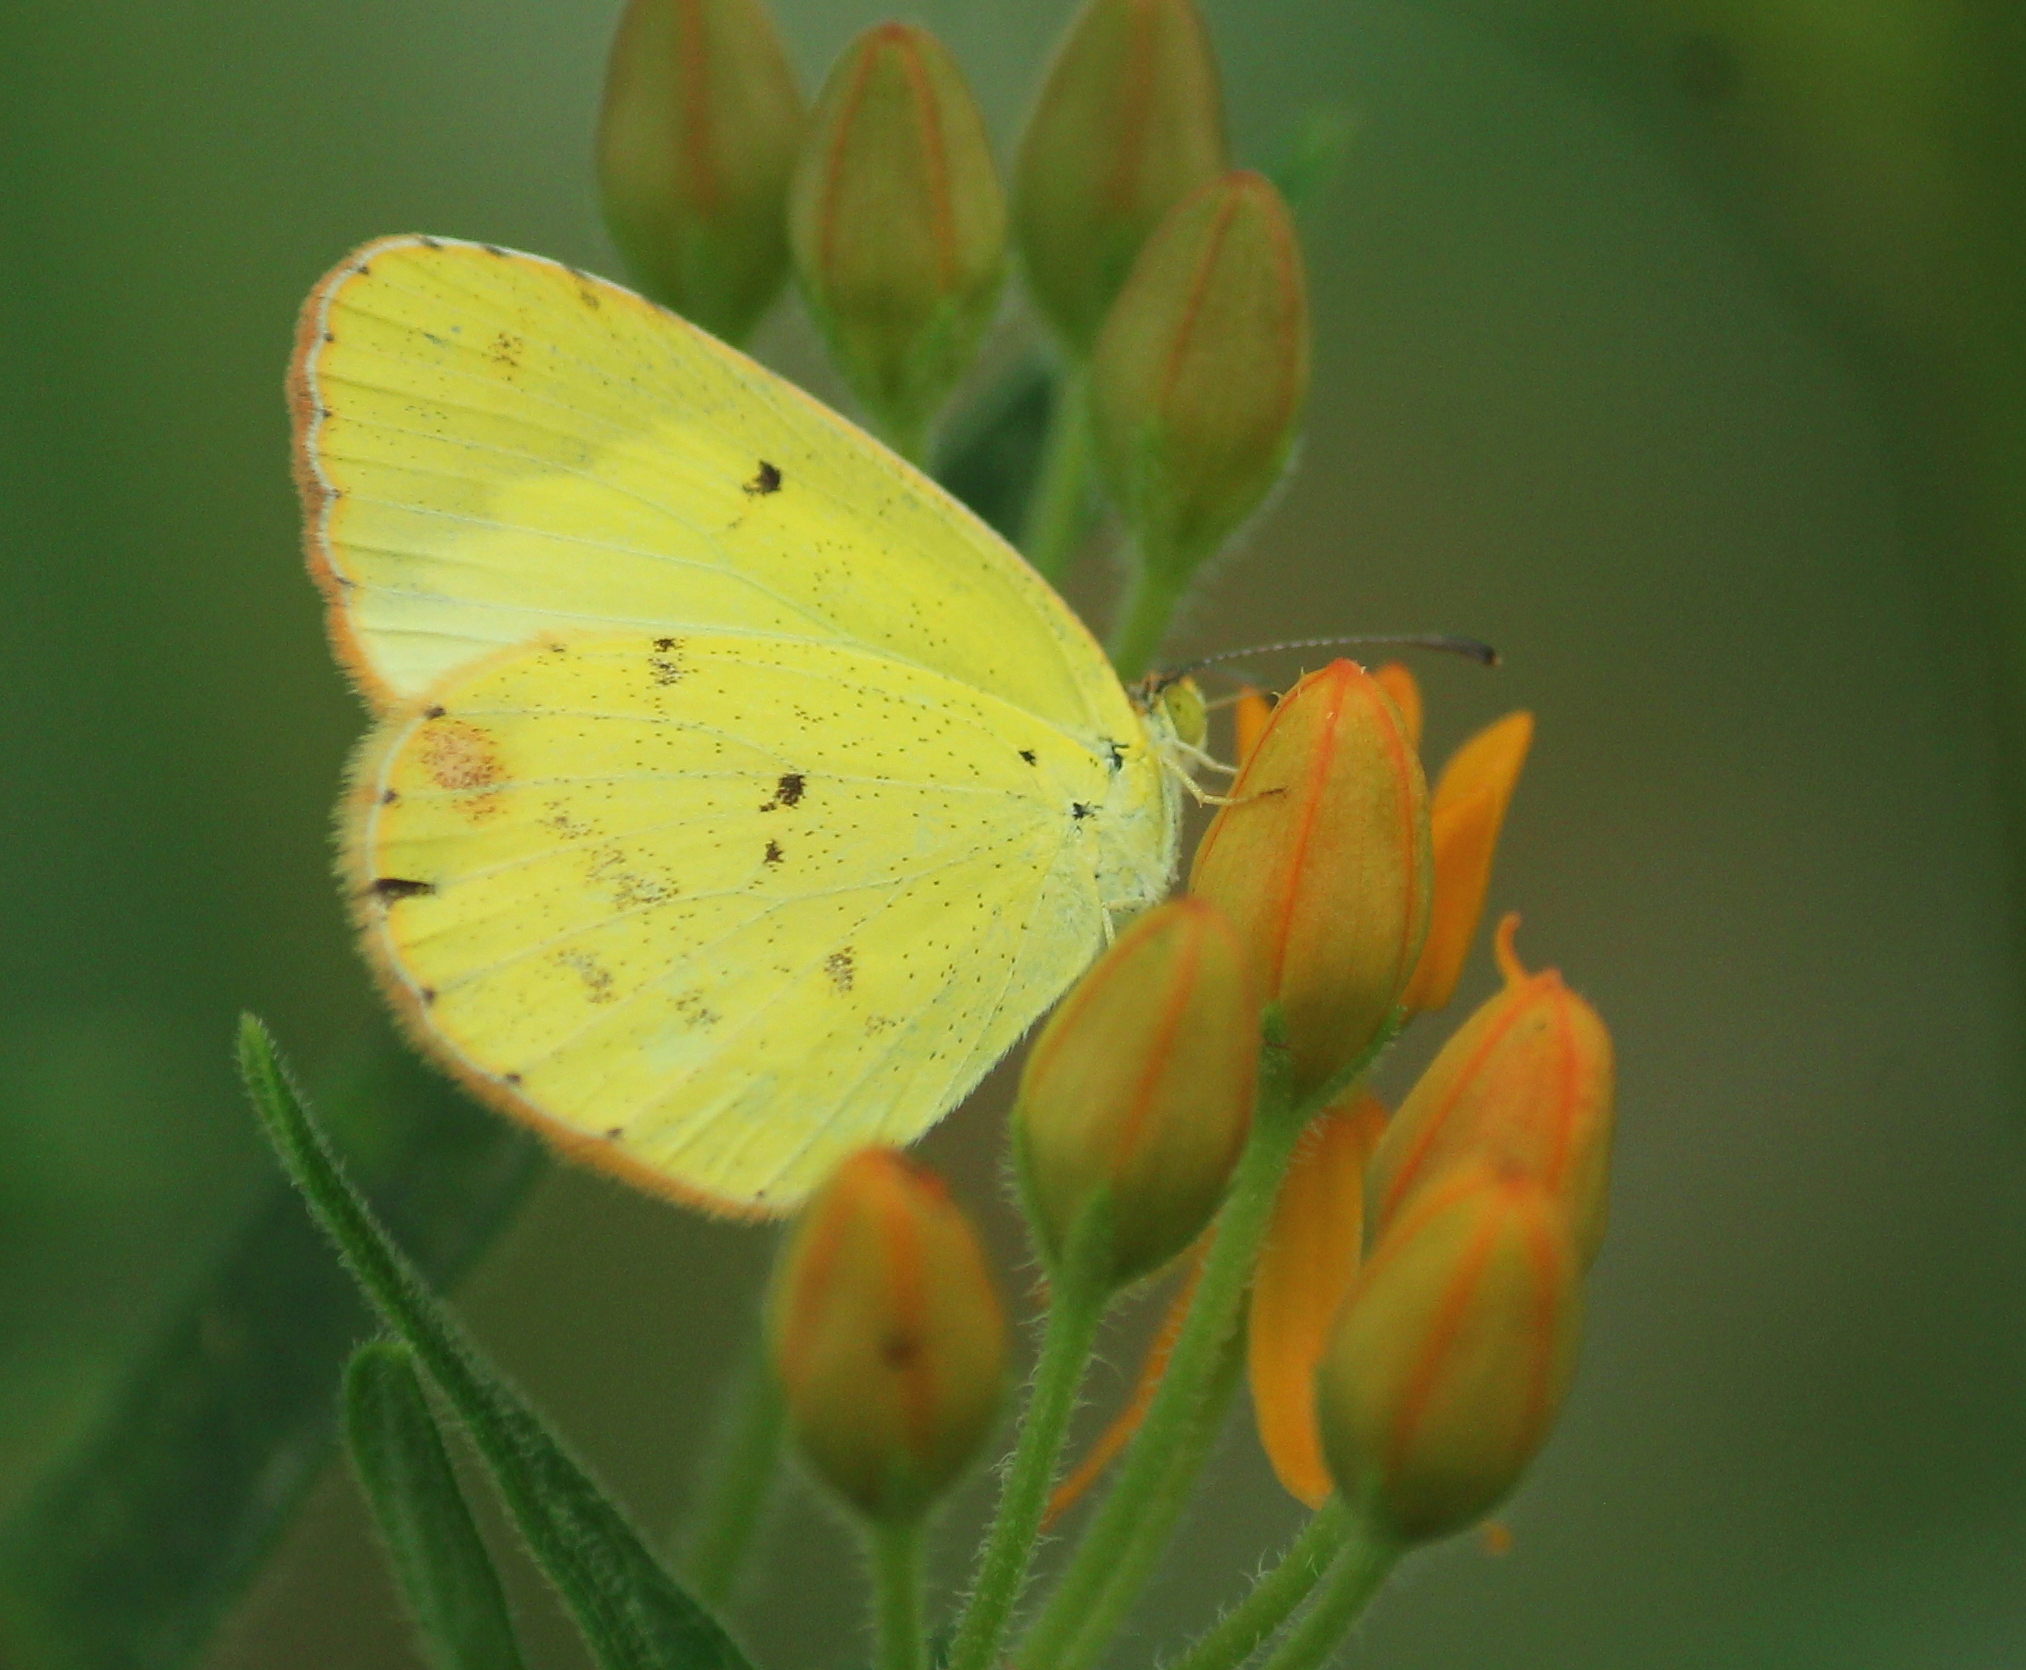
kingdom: Animalia
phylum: Arthropoda
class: Insecta
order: Lepidoptera
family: Pieridae
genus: Pyrisitia
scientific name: Pyrisitia lisa
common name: Little yellow
